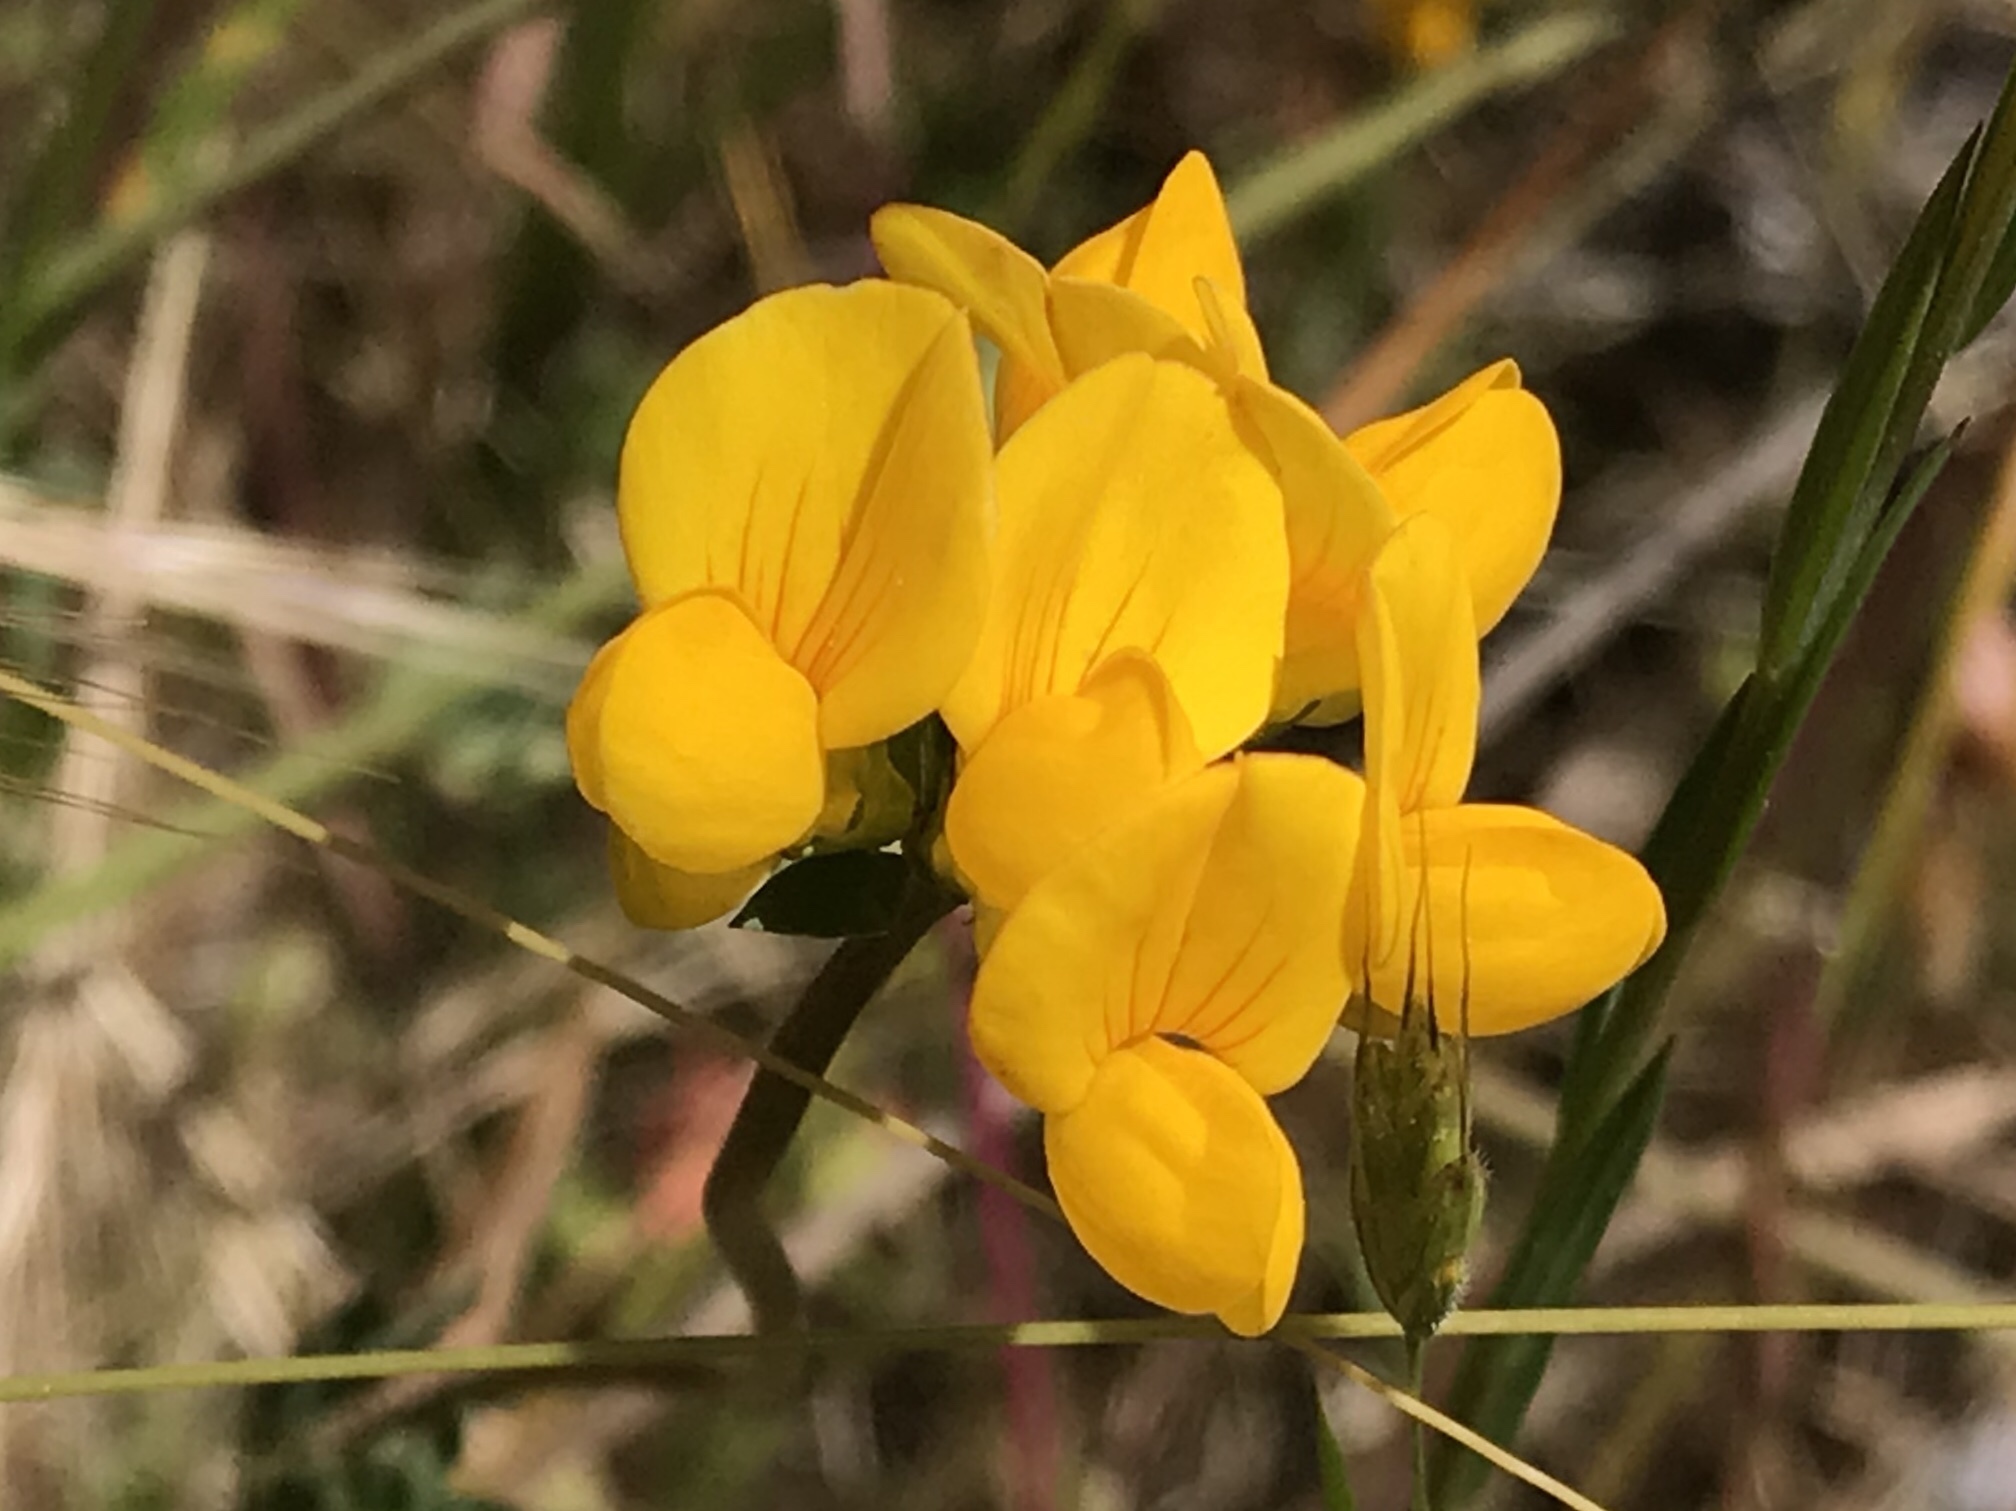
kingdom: Plantae
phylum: Tracheophyta
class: Magnoliopsida
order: Fabales
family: Fabaceae
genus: Lotus
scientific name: Lotus corniculatus
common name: Common bird's-foot-trefoil
